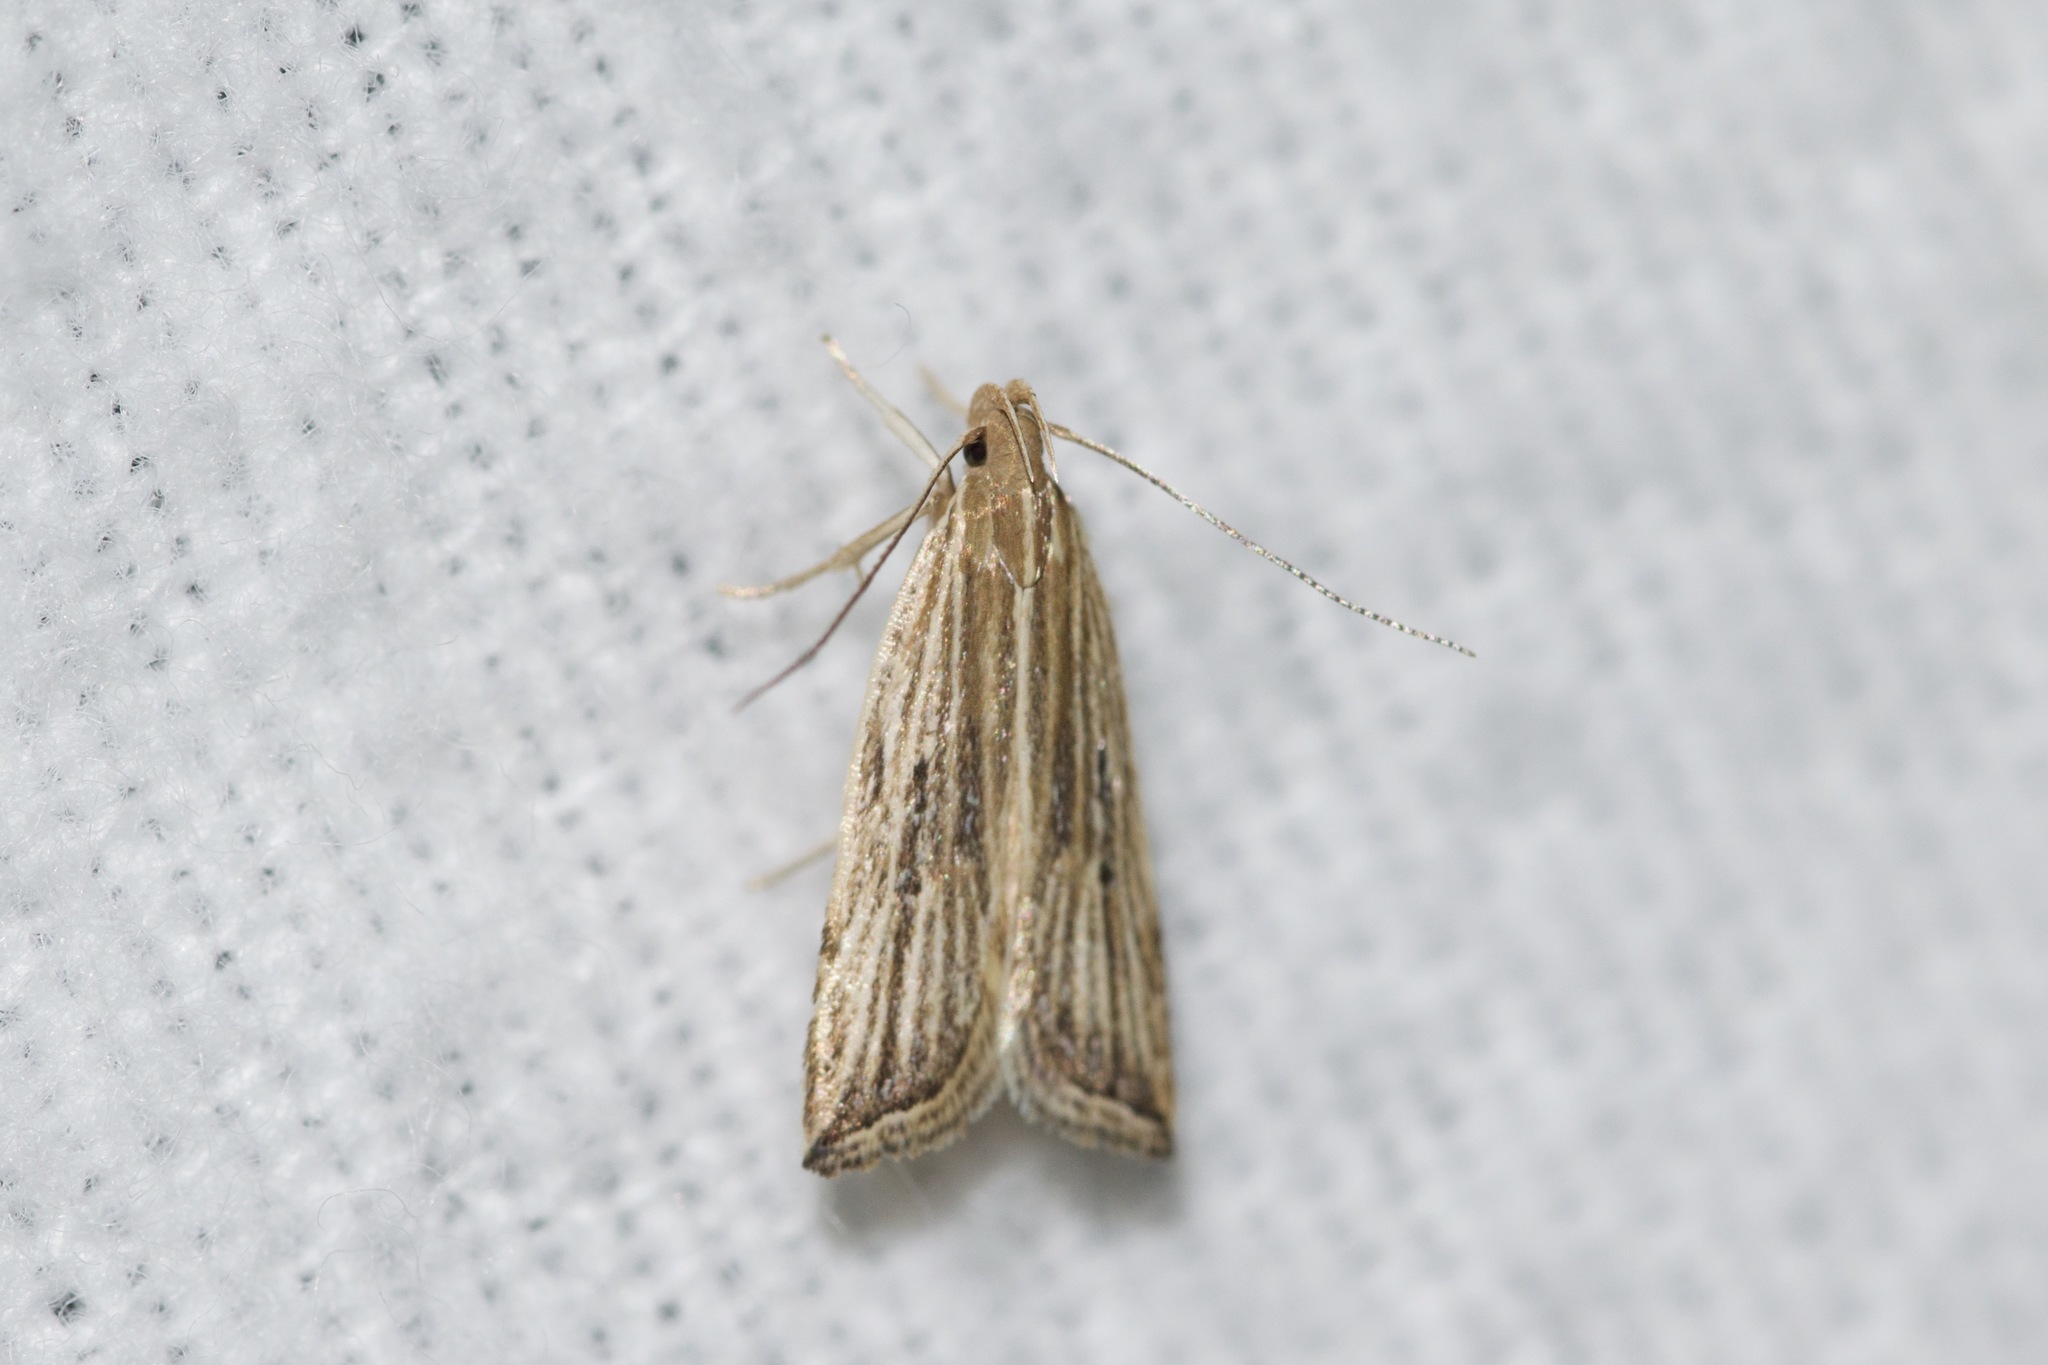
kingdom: Animalia
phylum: Arthropoda
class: Insecta
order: Lepidoptera
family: Gelechiidae
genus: Helcystogramma
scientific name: Helcystogramma hystricella
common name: Lanceolate moth
